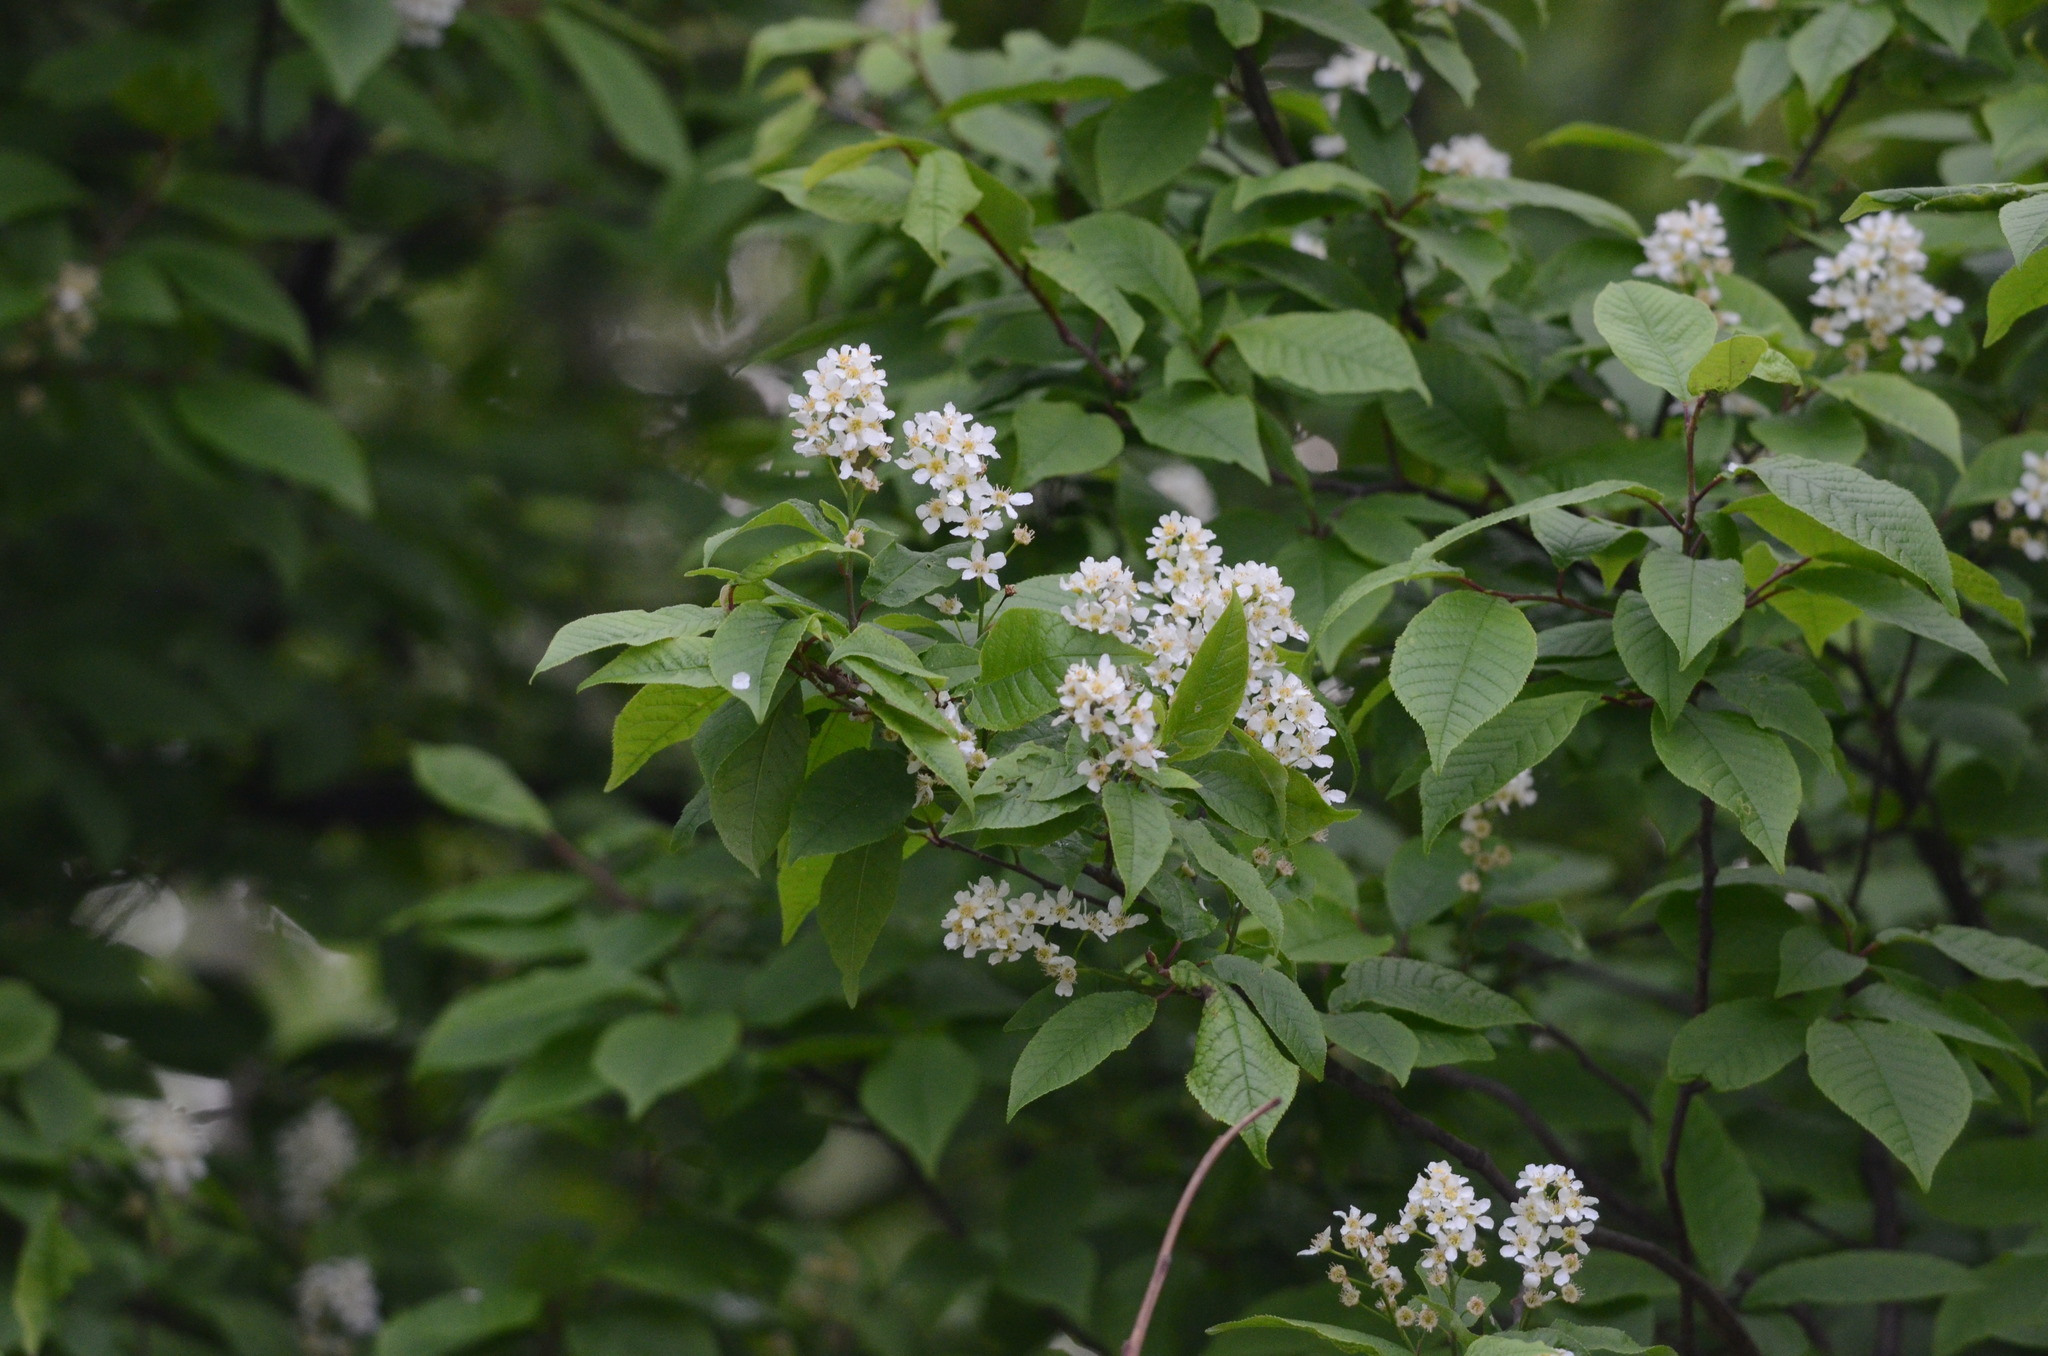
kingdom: Plantae
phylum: Tracheophyta
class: Magnoliopsida
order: Rosales
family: Rosaceae
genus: Prunus
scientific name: Prunus padus
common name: Bird cherry
